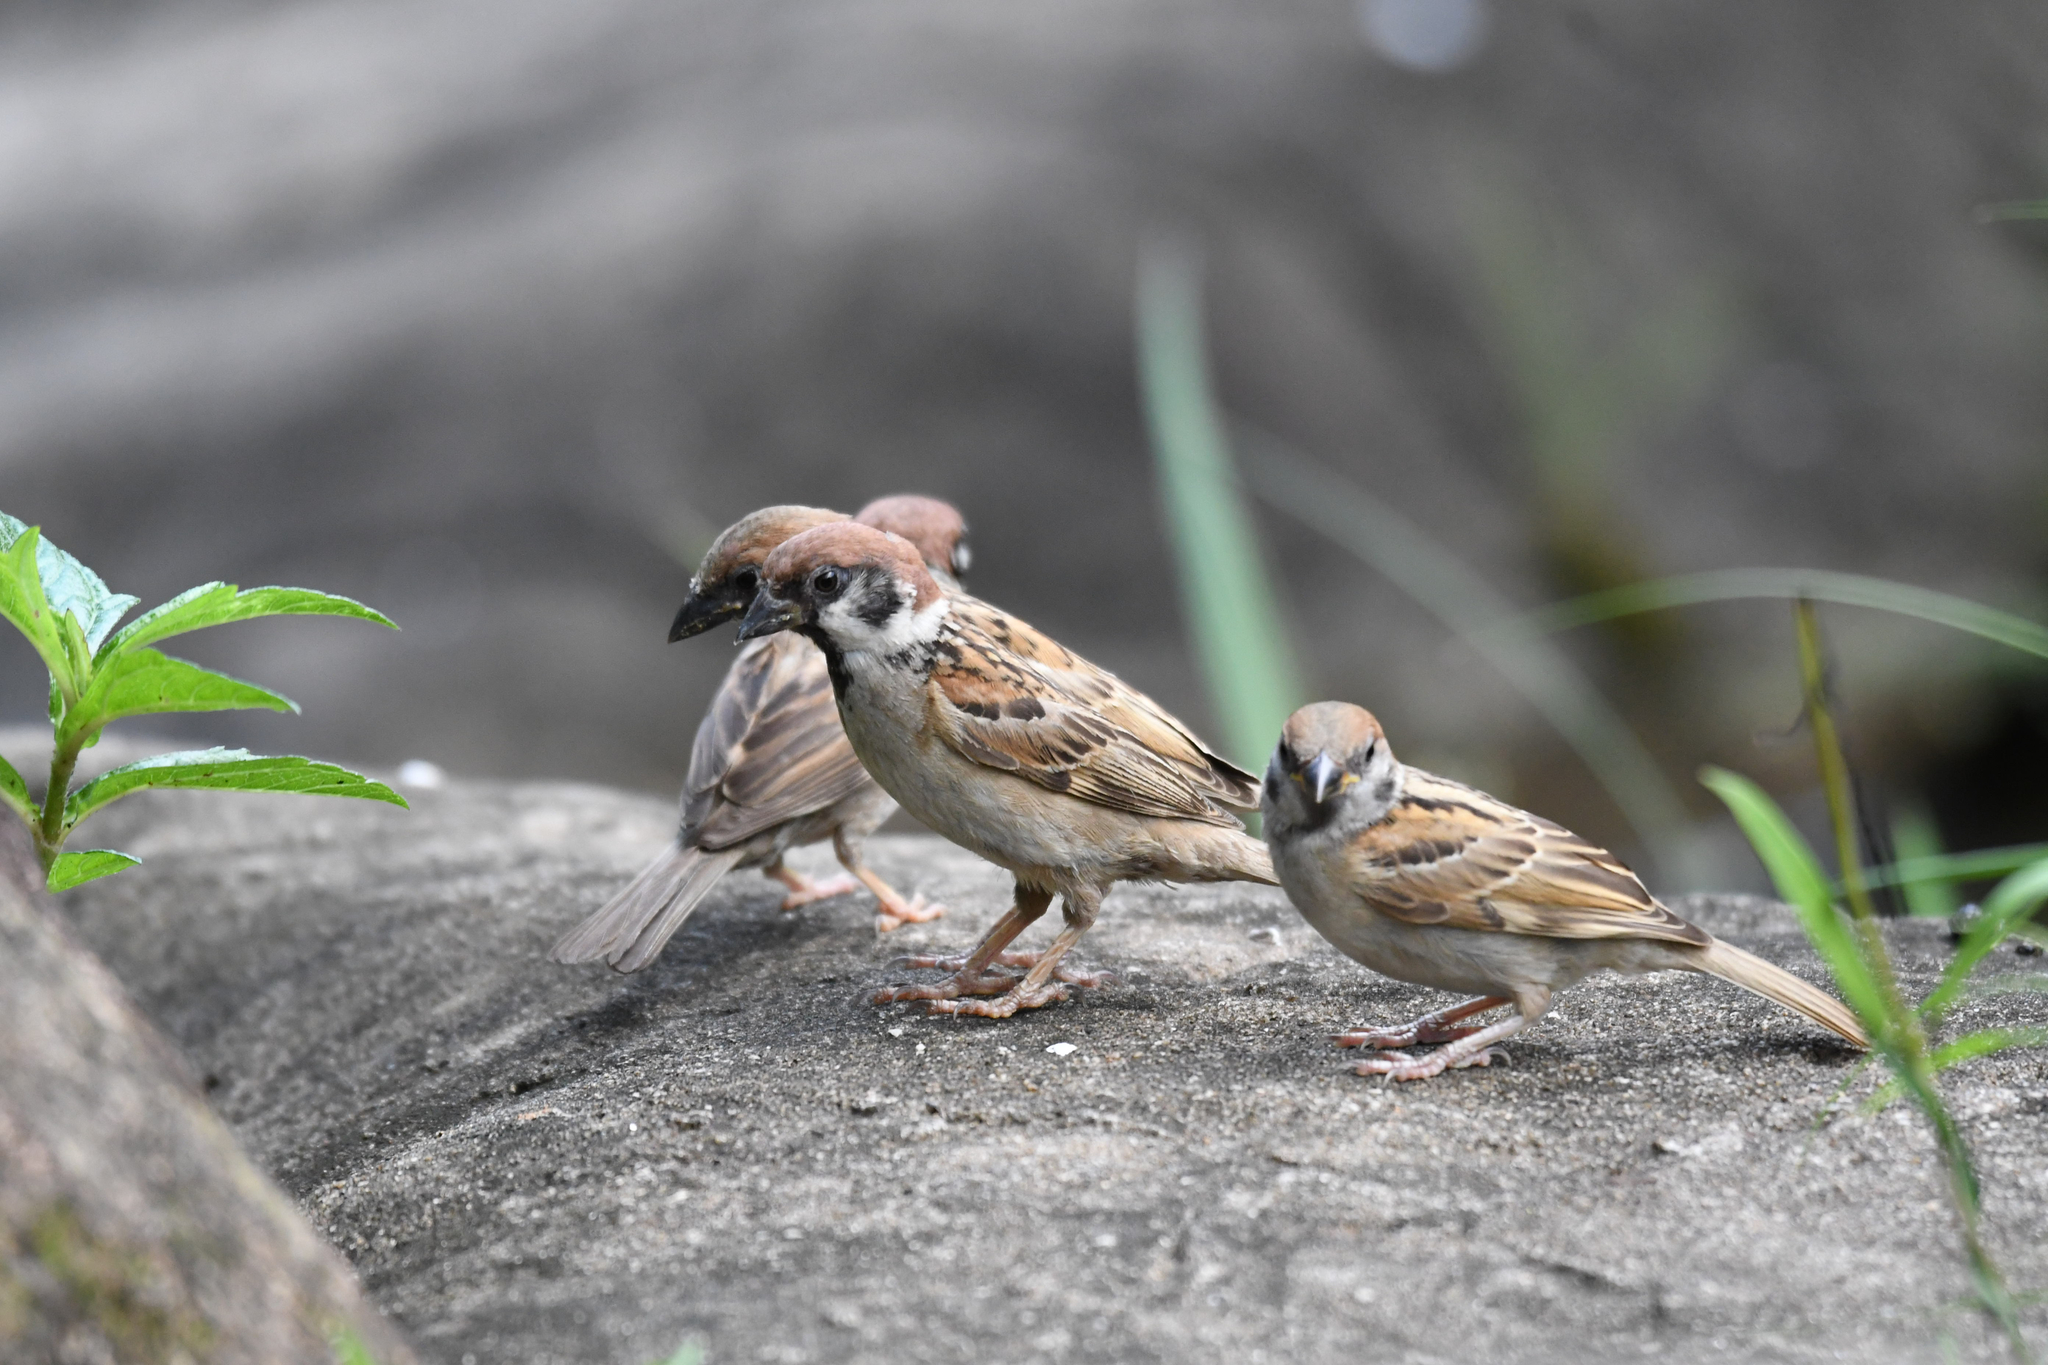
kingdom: Animalia
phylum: Chordata
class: Aves
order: Passeriformes
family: Passeridae
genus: Passer
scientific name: Passer montanus
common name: Eurasian tree sparrow
